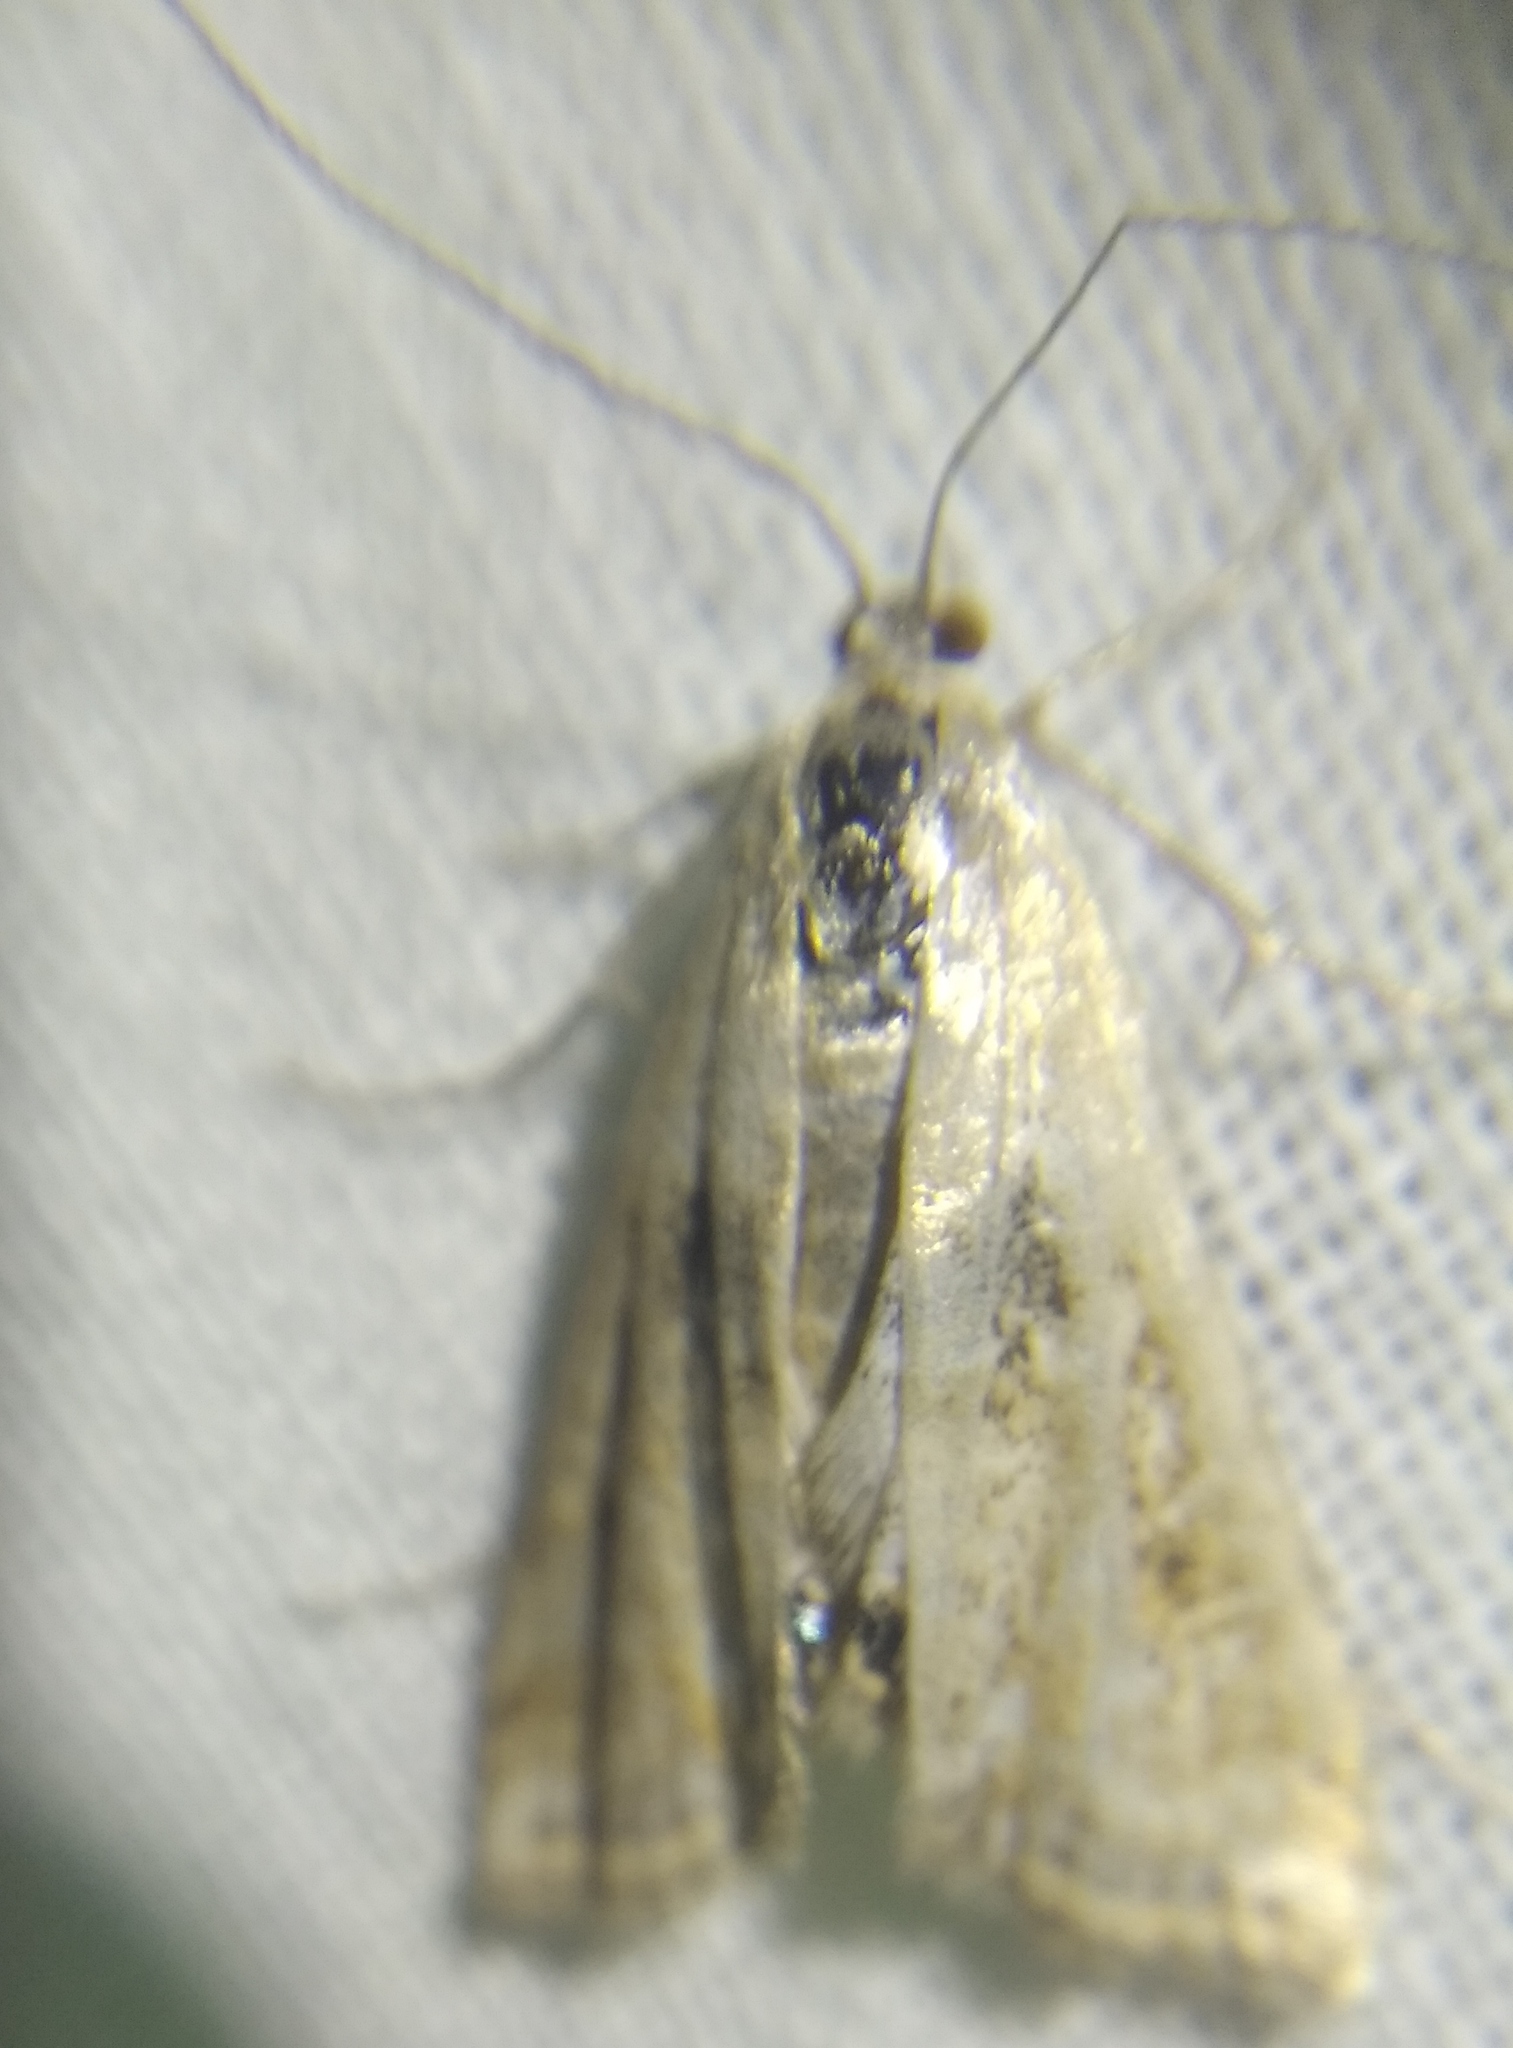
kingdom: Animalia
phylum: Arthropoda
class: Insecta
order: Lepidoptera
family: Crambidae
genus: Cataclysta
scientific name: Cataclysta lemnata
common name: Small china-mark
